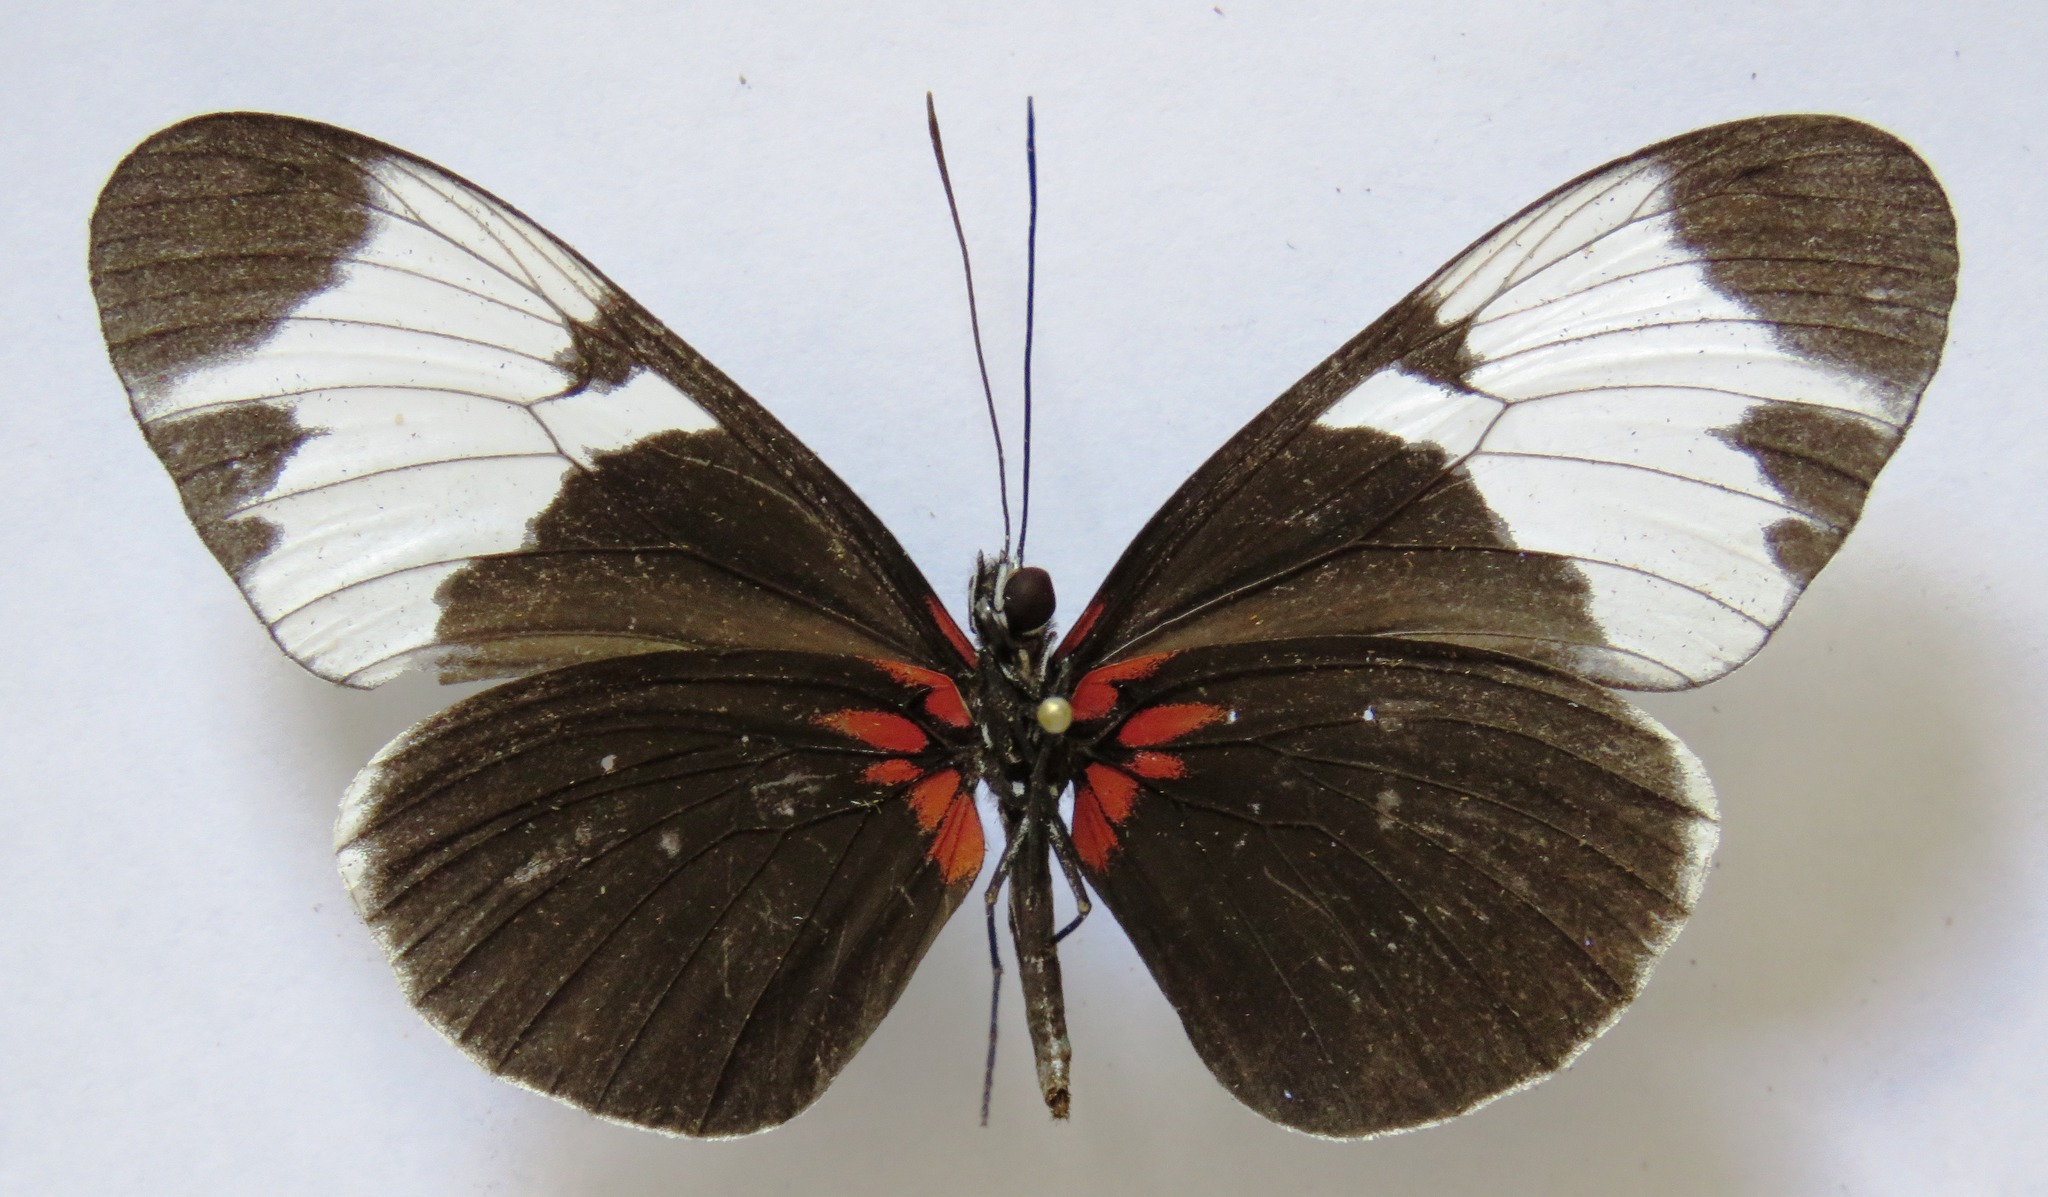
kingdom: Animalia
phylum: Arthropoda
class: Insecta
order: Lepidoptera
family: Nymphalidae
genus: Heliconius
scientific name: Heliconius sapho
